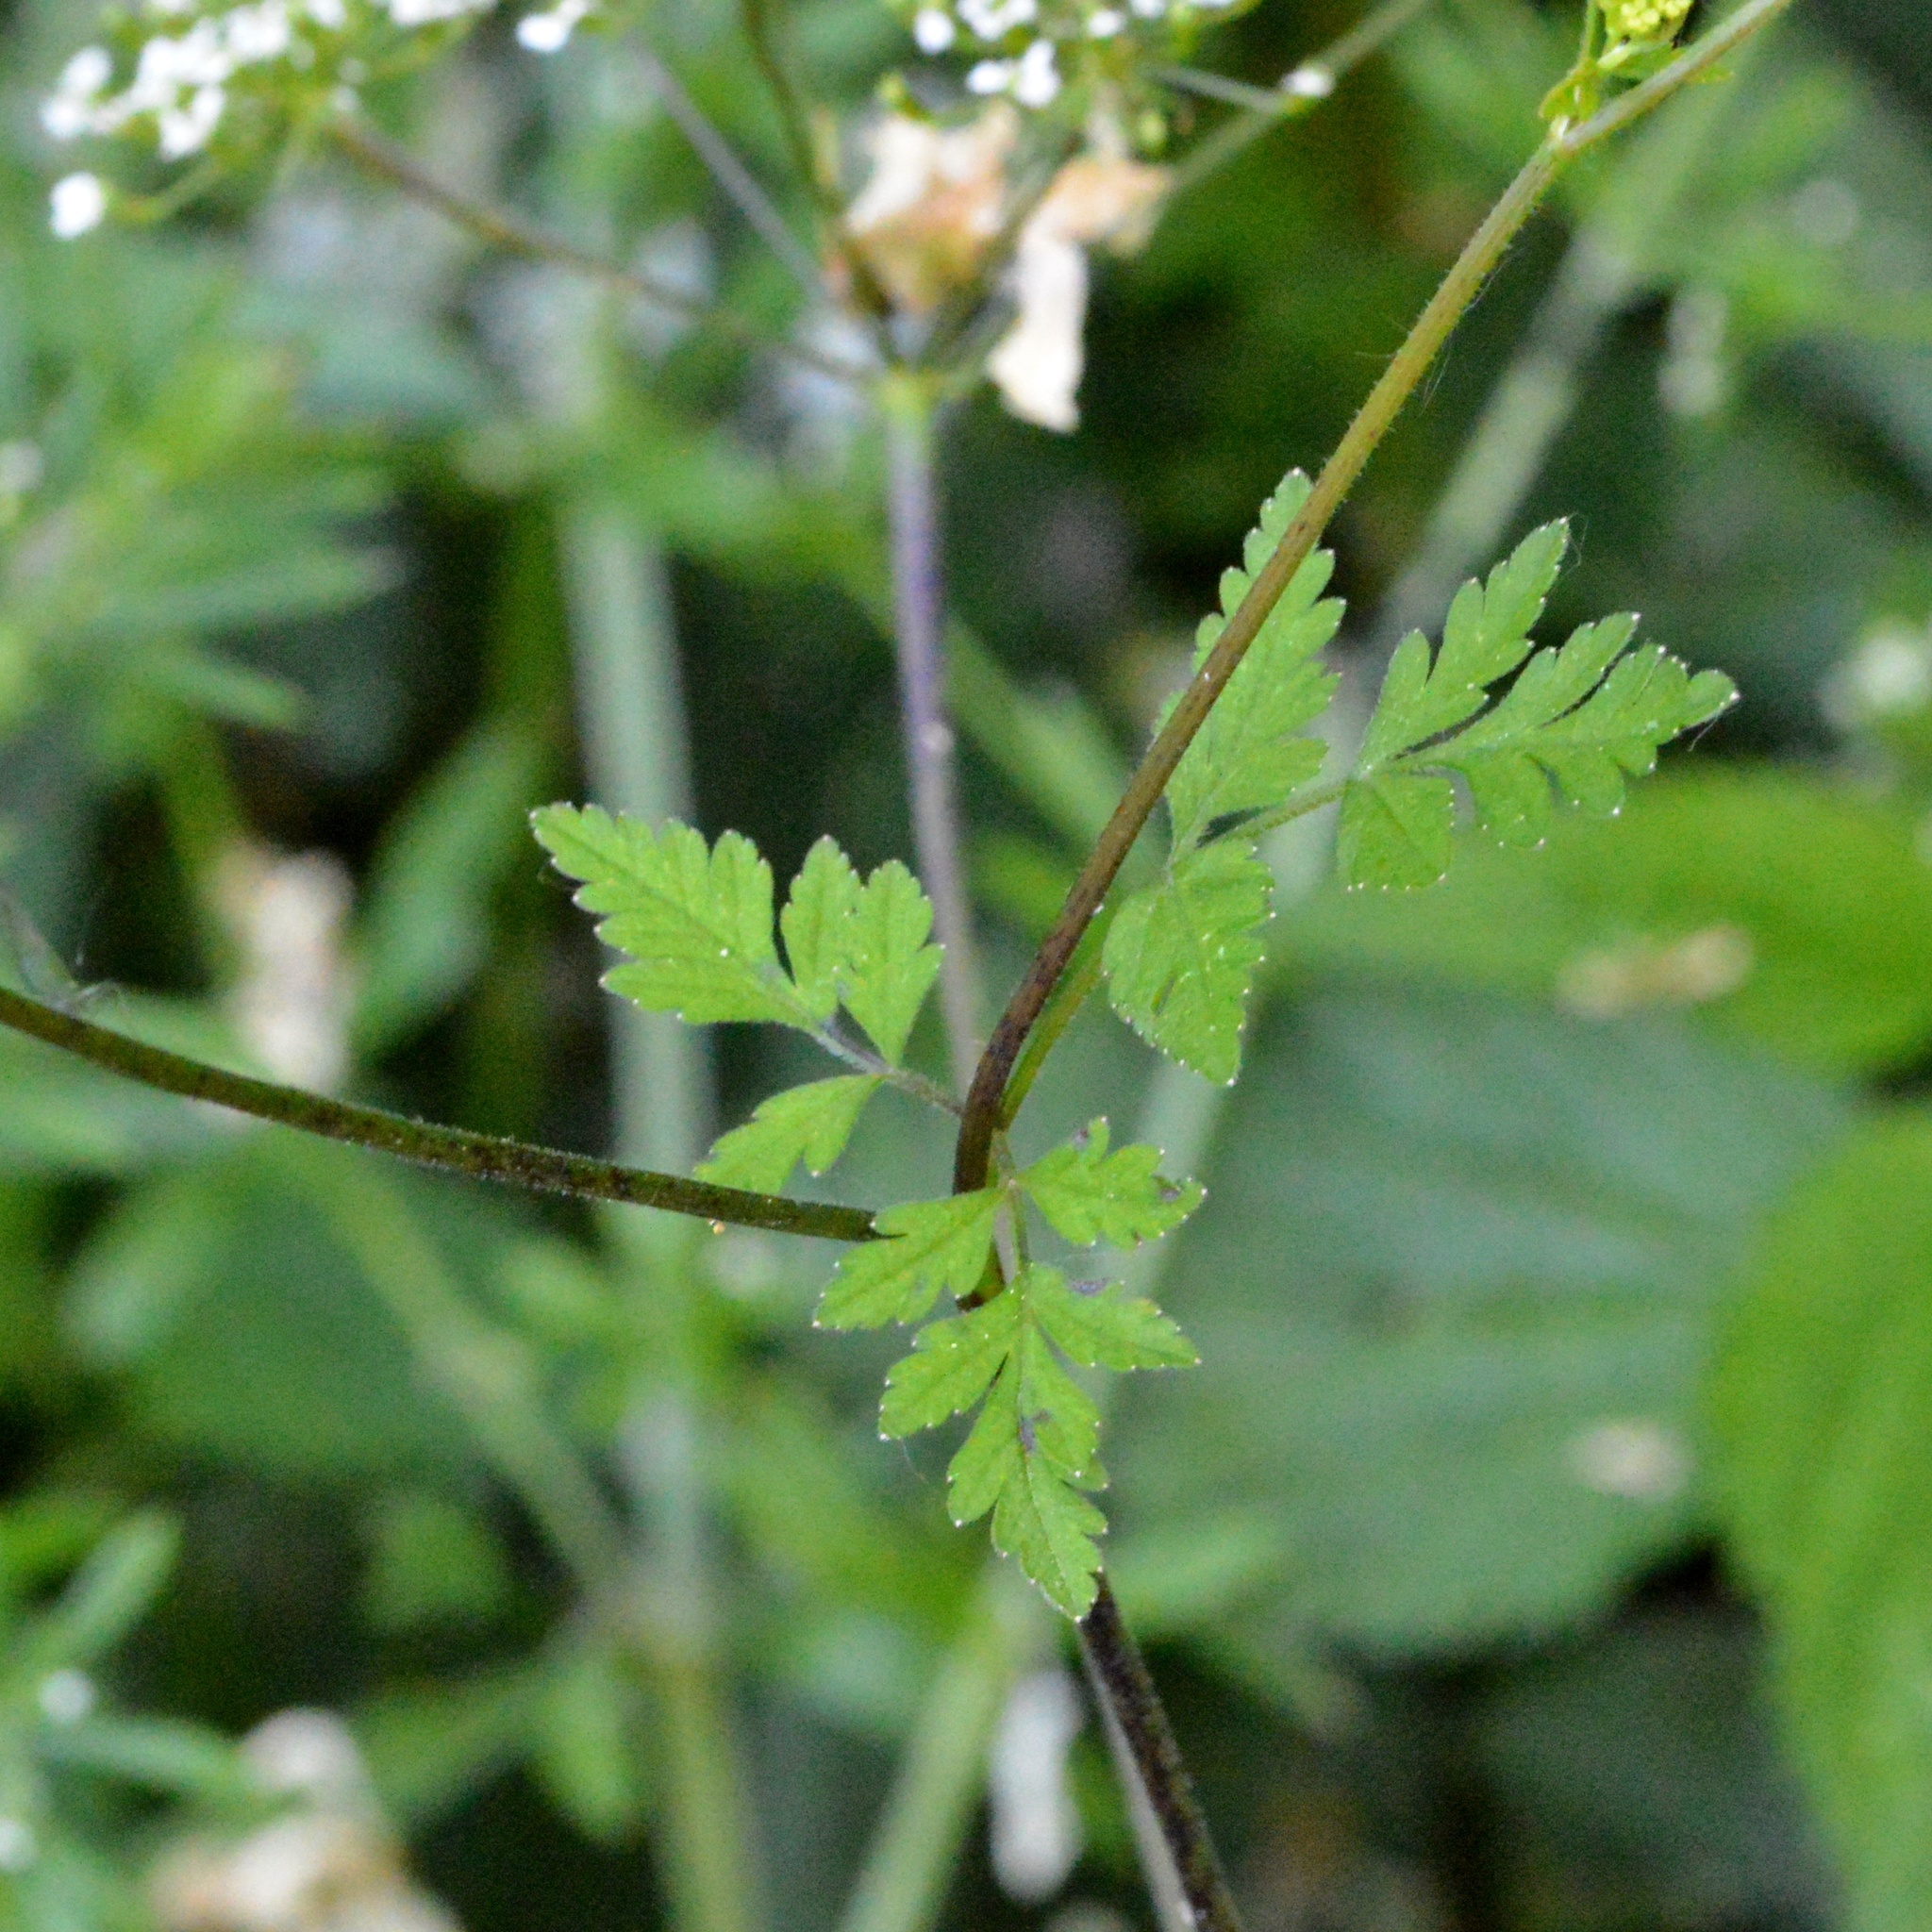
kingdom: Plantae
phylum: Tracheophyta
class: Magnoliopsida
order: Apiales
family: Apiaceae
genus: Chaerophyllum
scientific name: Chaerophyllum temulum
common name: Rough chervil
